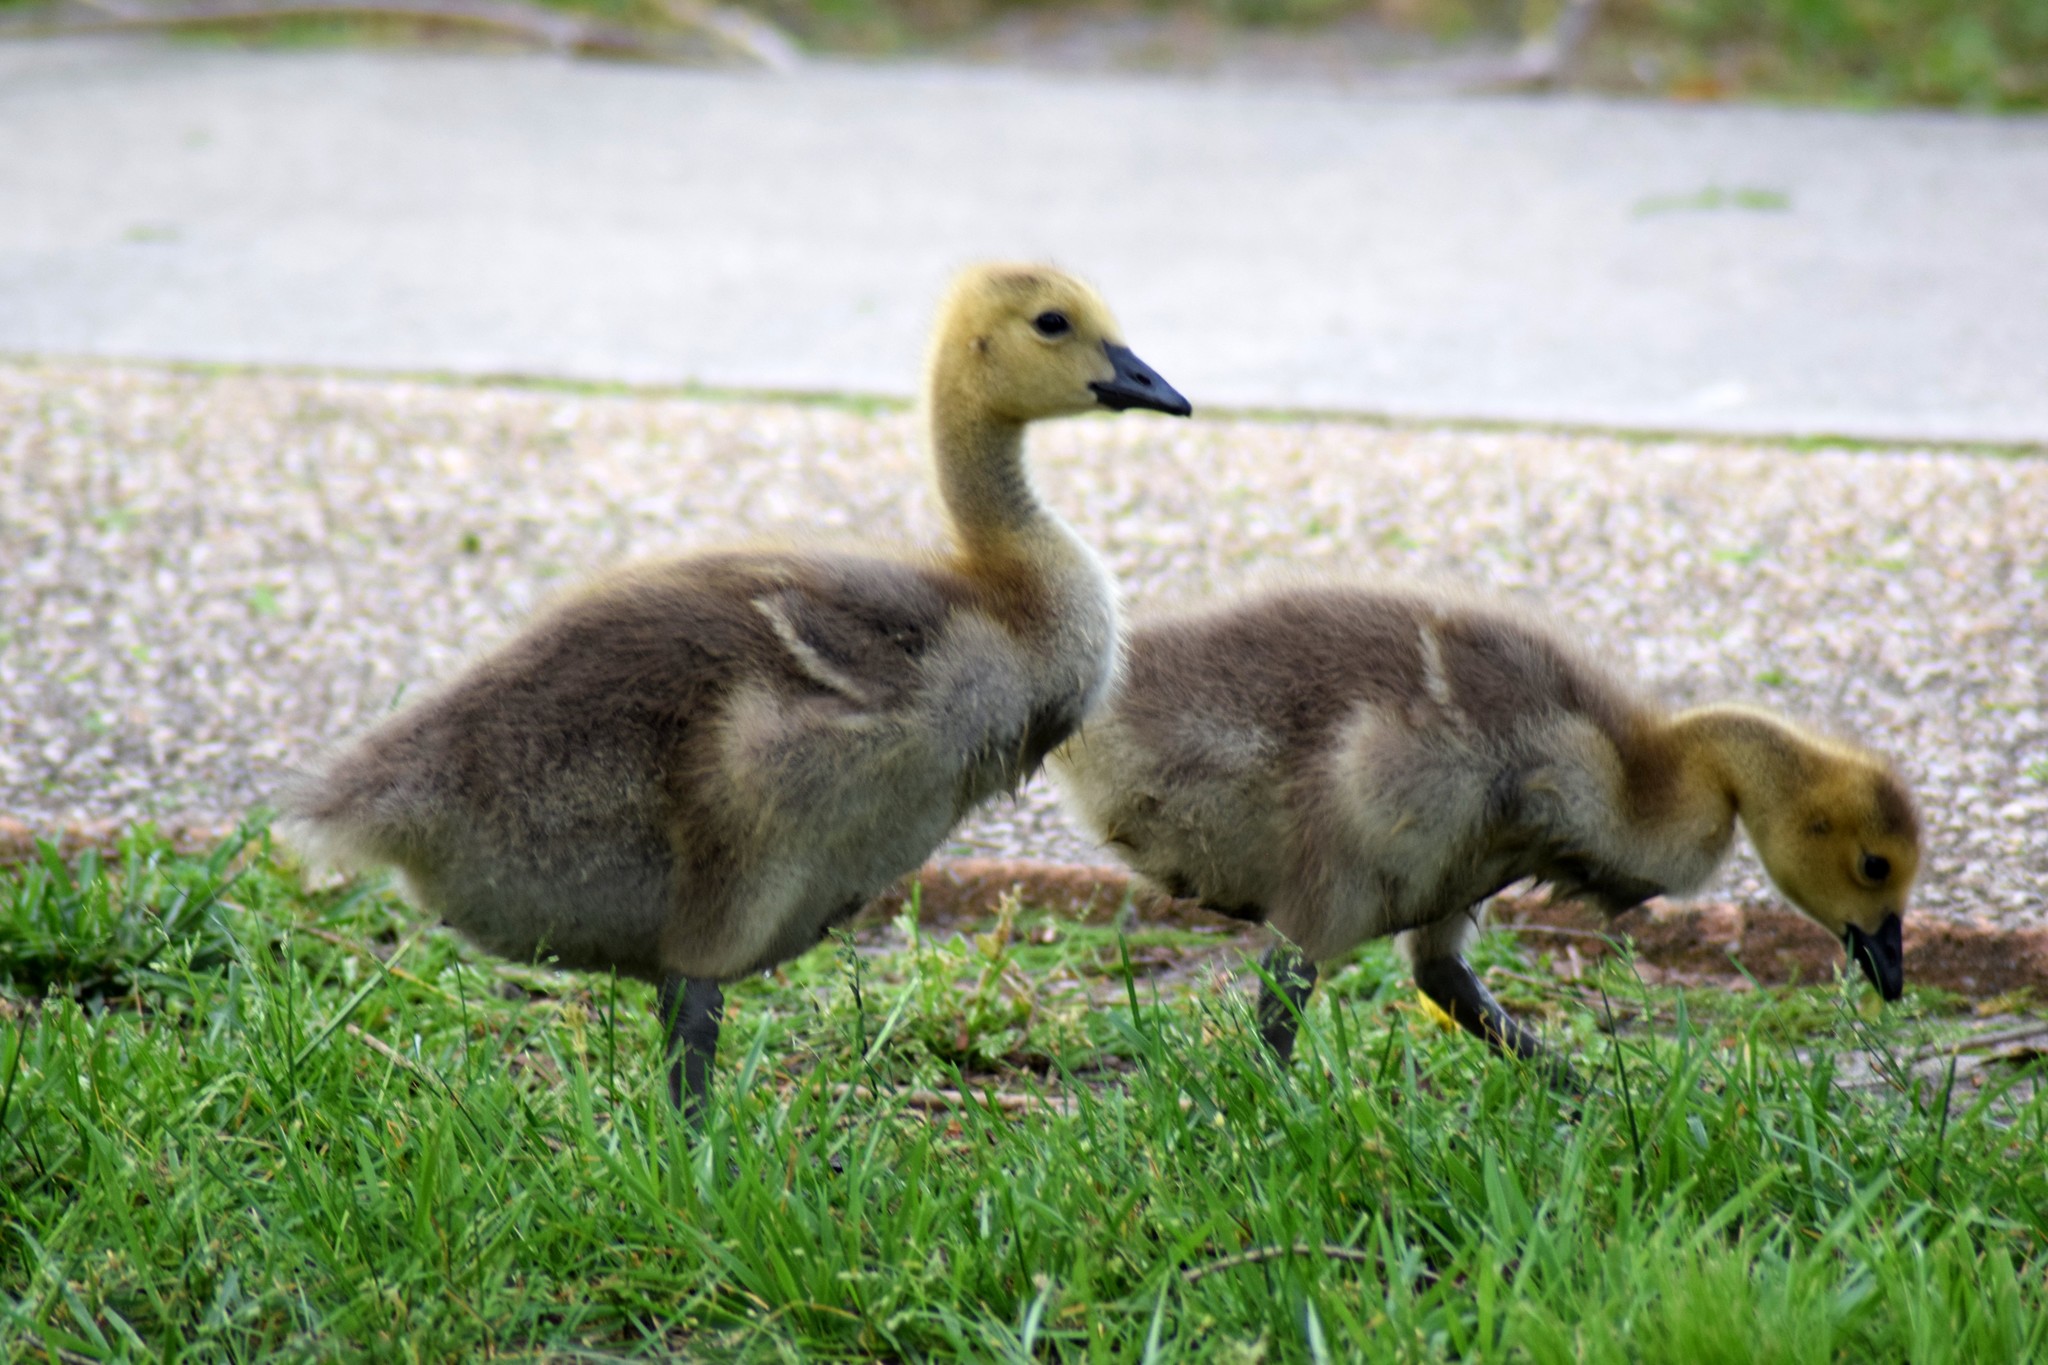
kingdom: Animalia
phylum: Chordata
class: Aves
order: Anseriformes
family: Anatidae
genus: Branta
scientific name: Branta canadensis
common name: Canada goose
